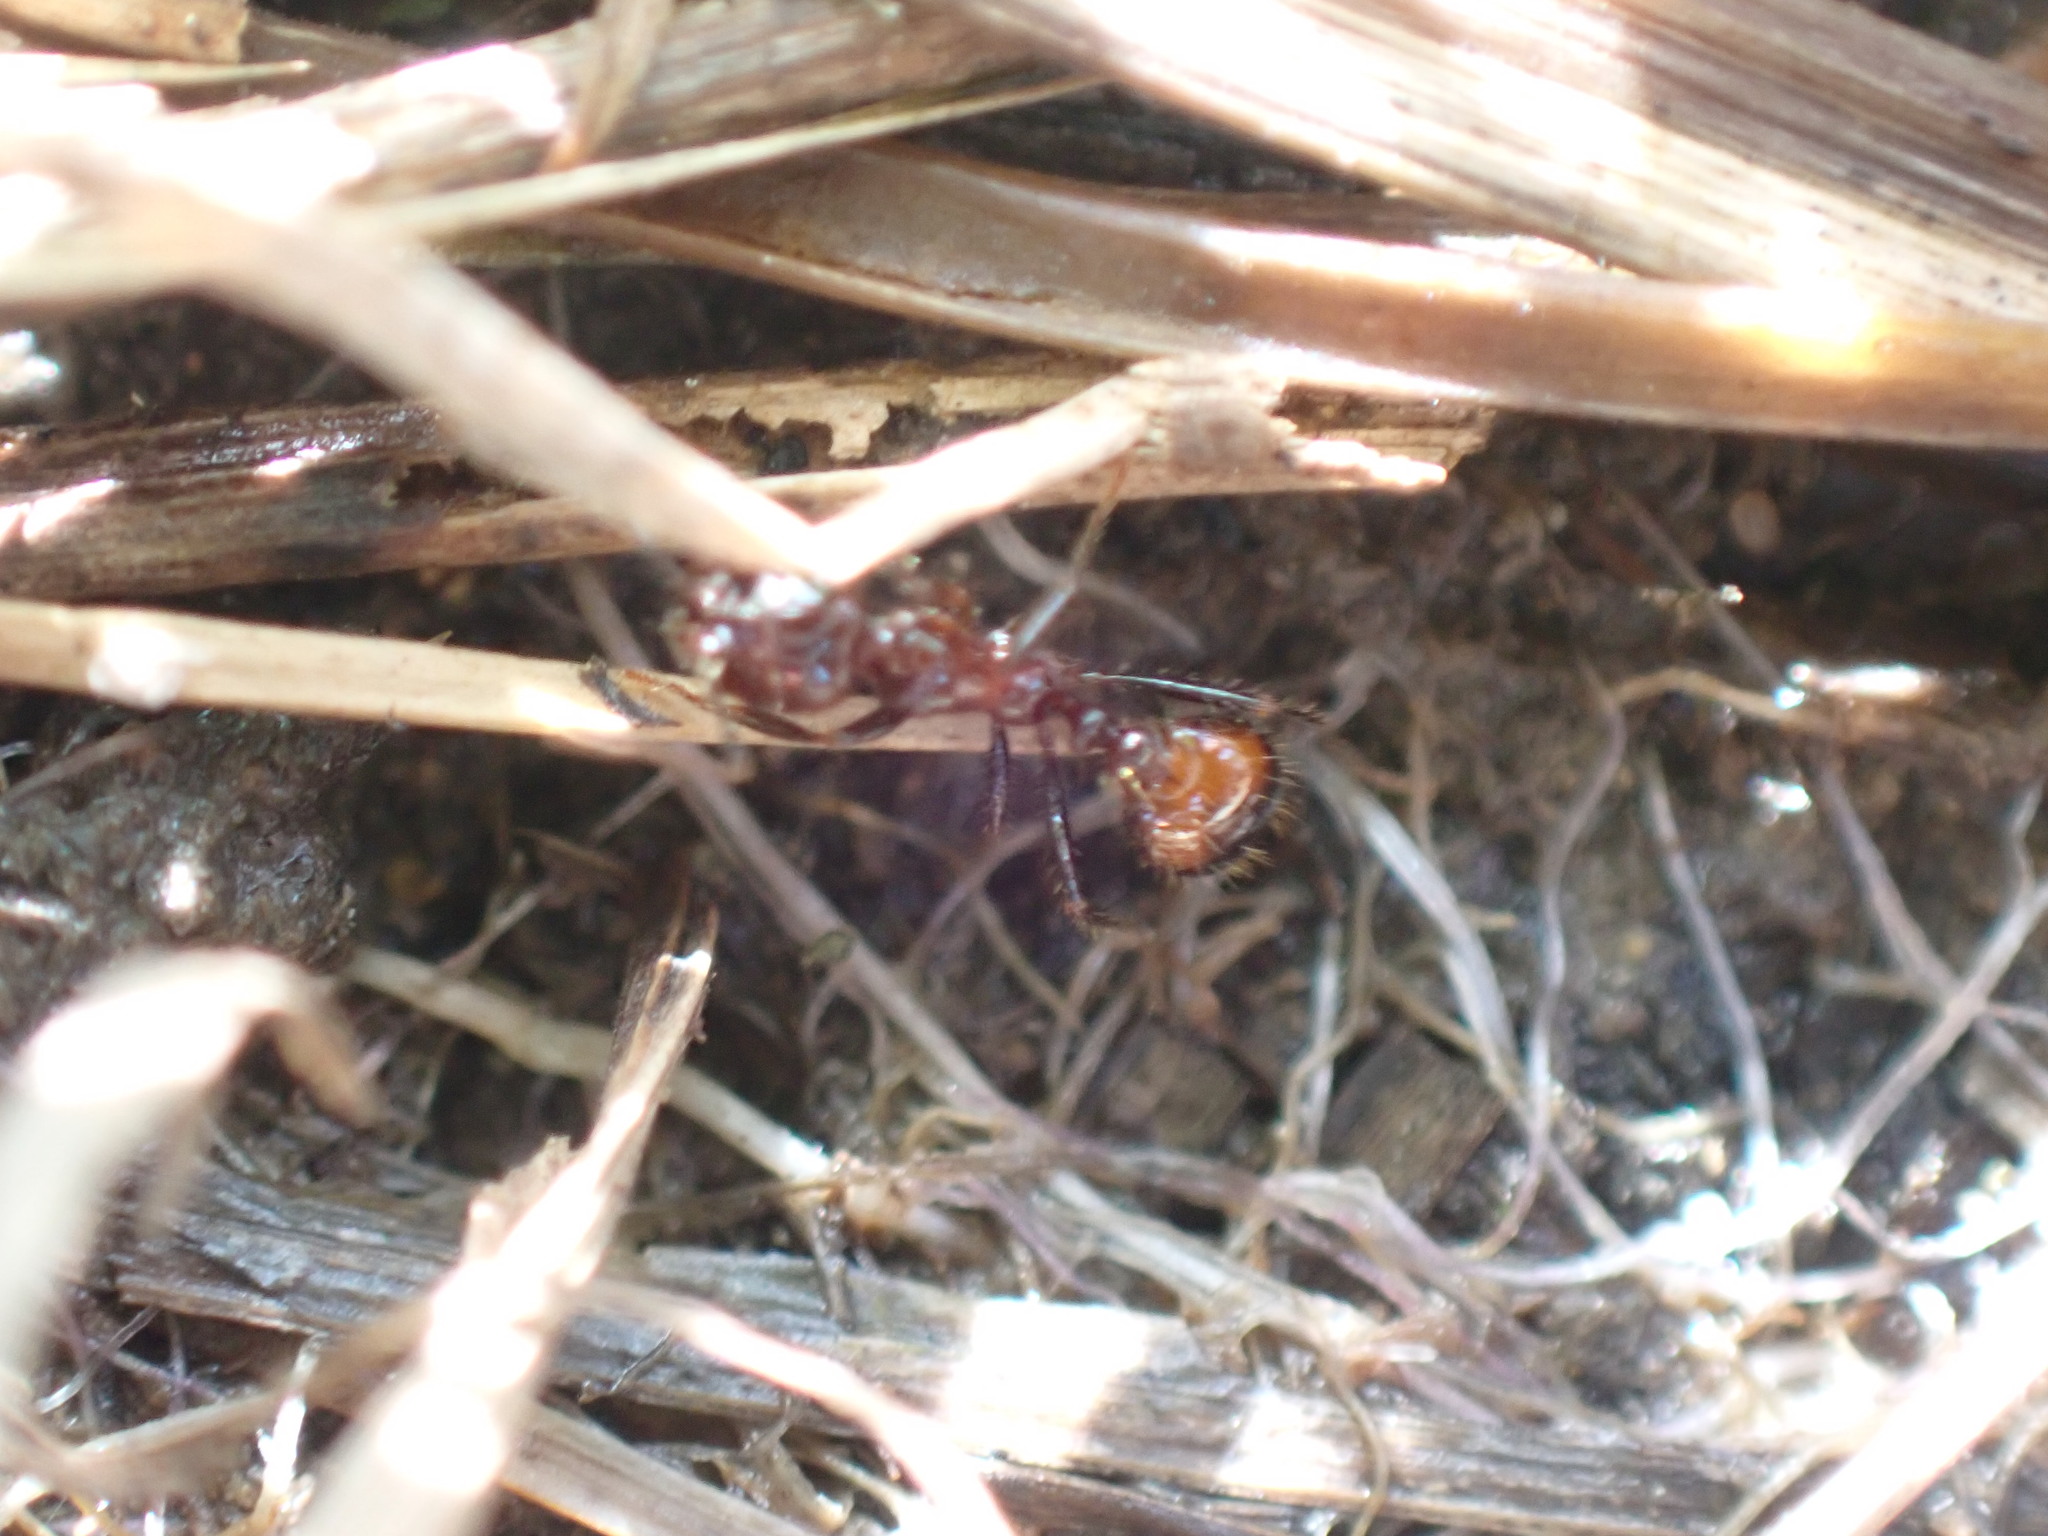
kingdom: Animalia
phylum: Arthropoda
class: Insecta
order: Hymenoptera
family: Formicidae
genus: Solenopsis
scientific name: Solenopsis
